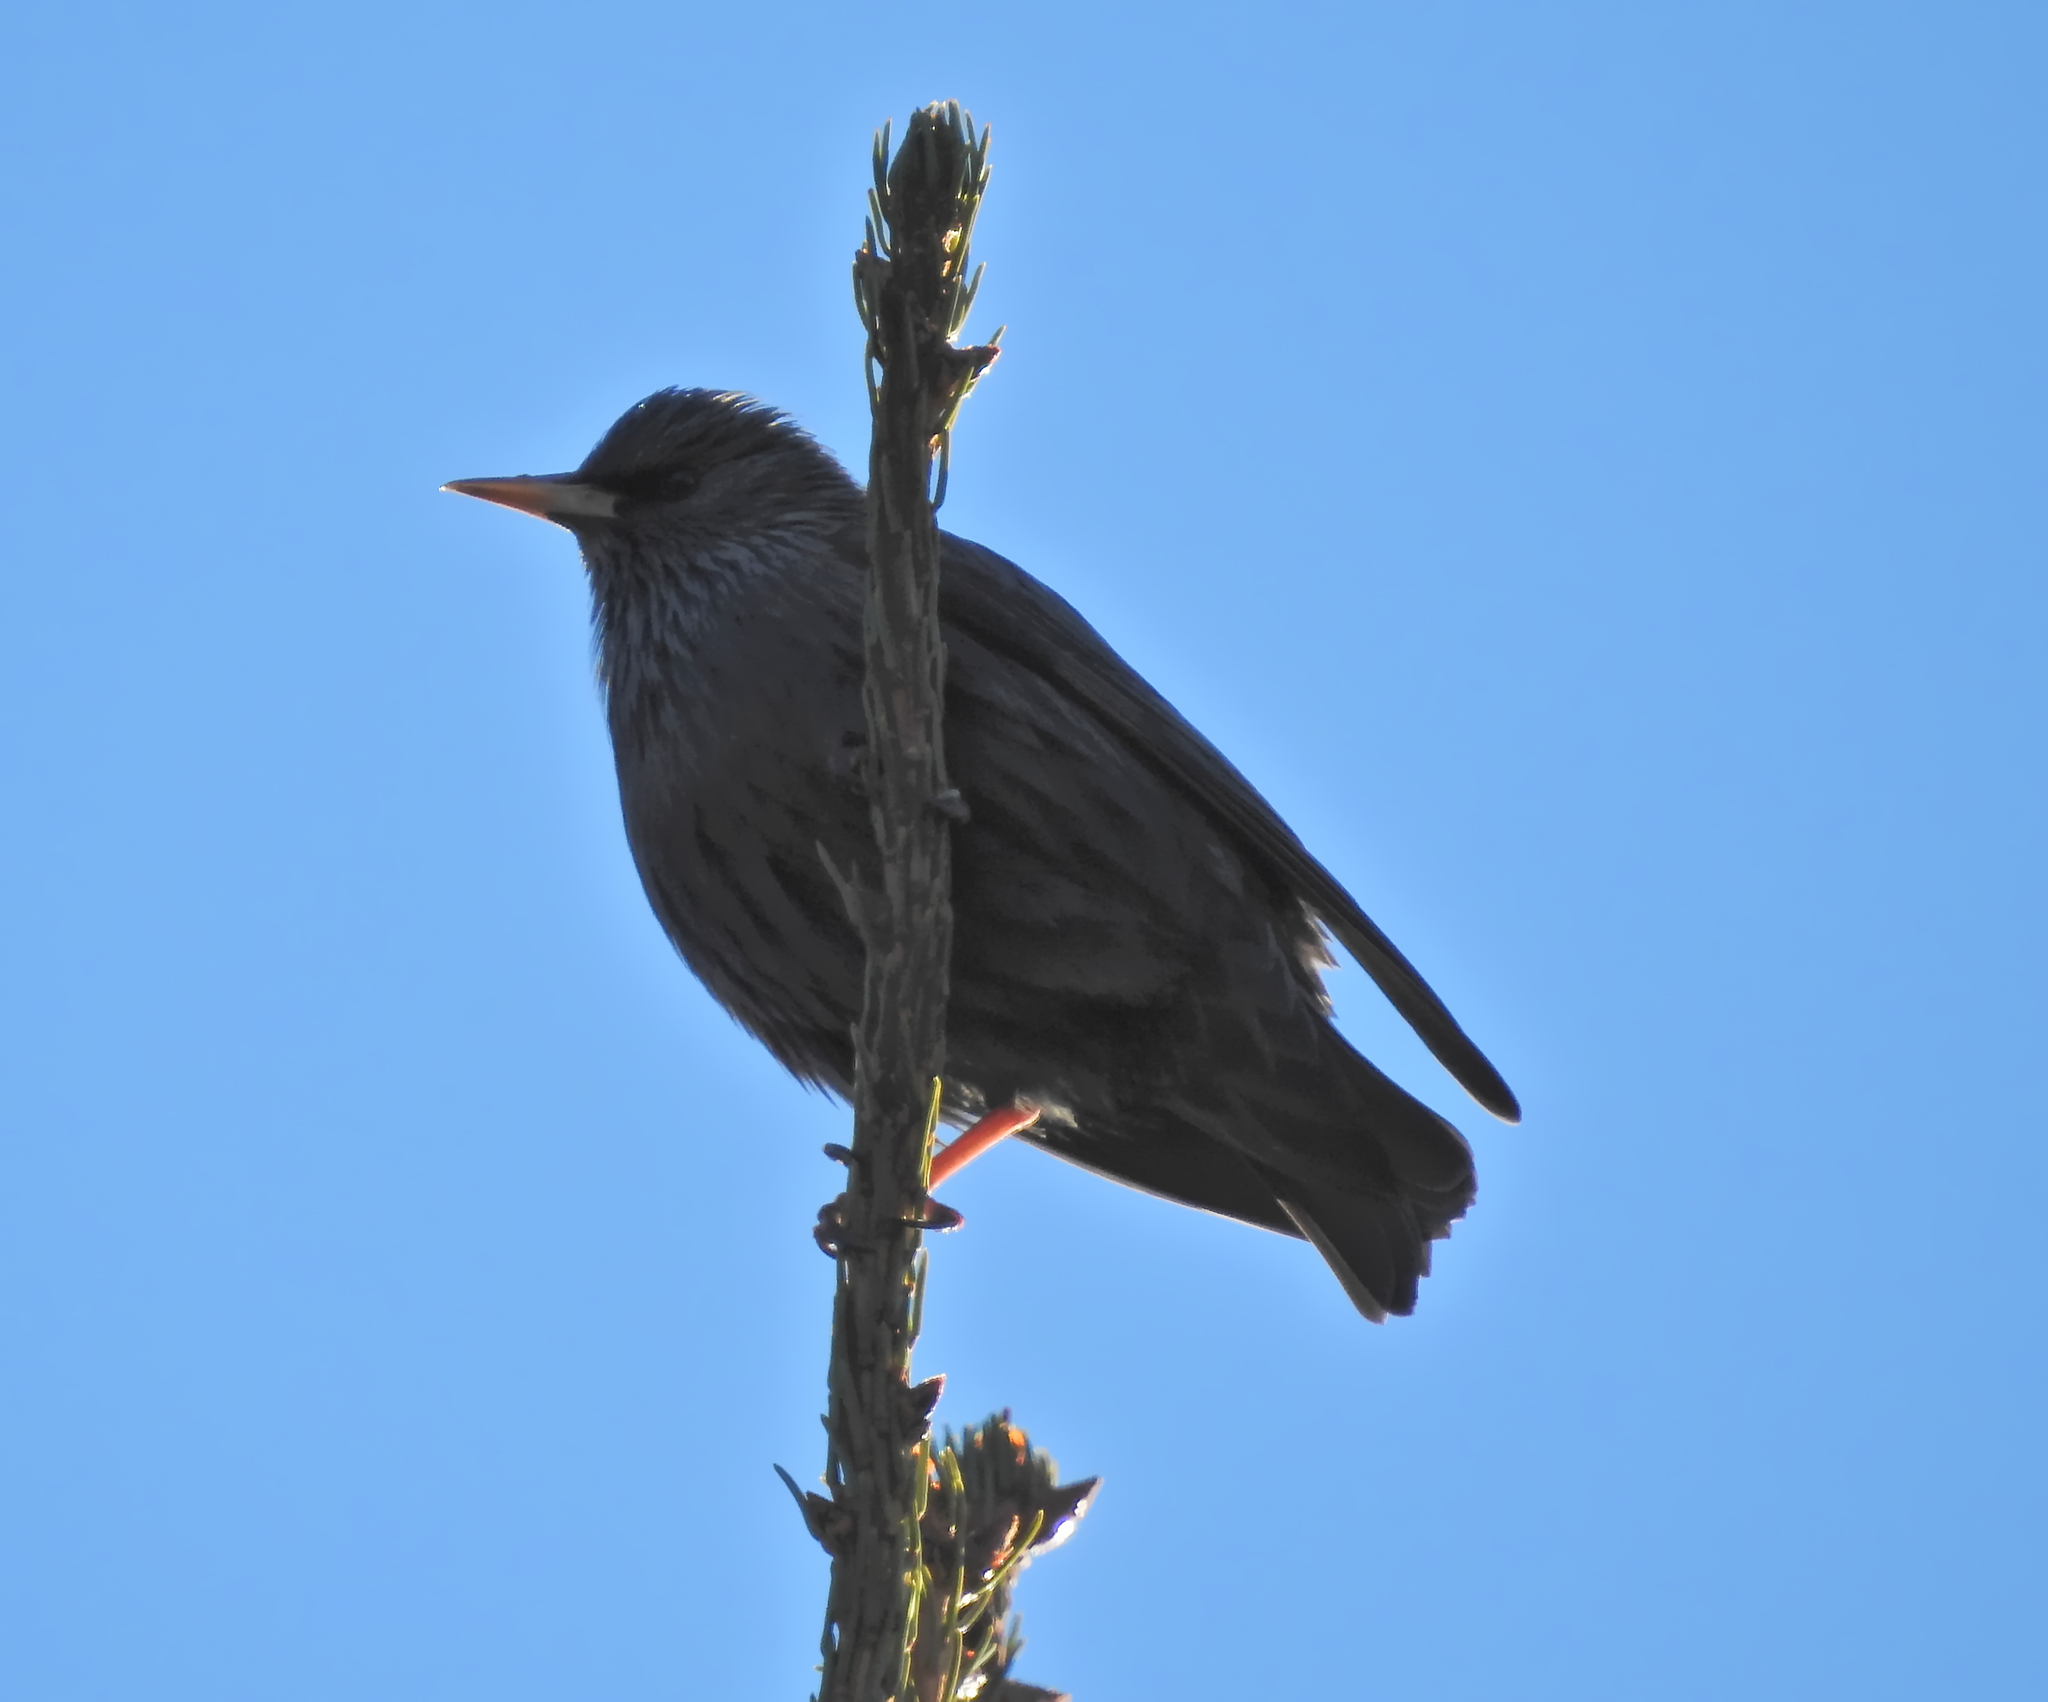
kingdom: Animalia
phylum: Chordata
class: Aves
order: Passeriformes
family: Sturnidae
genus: Sturnus
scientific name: Sturnus unicolor
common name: Spotless starling
